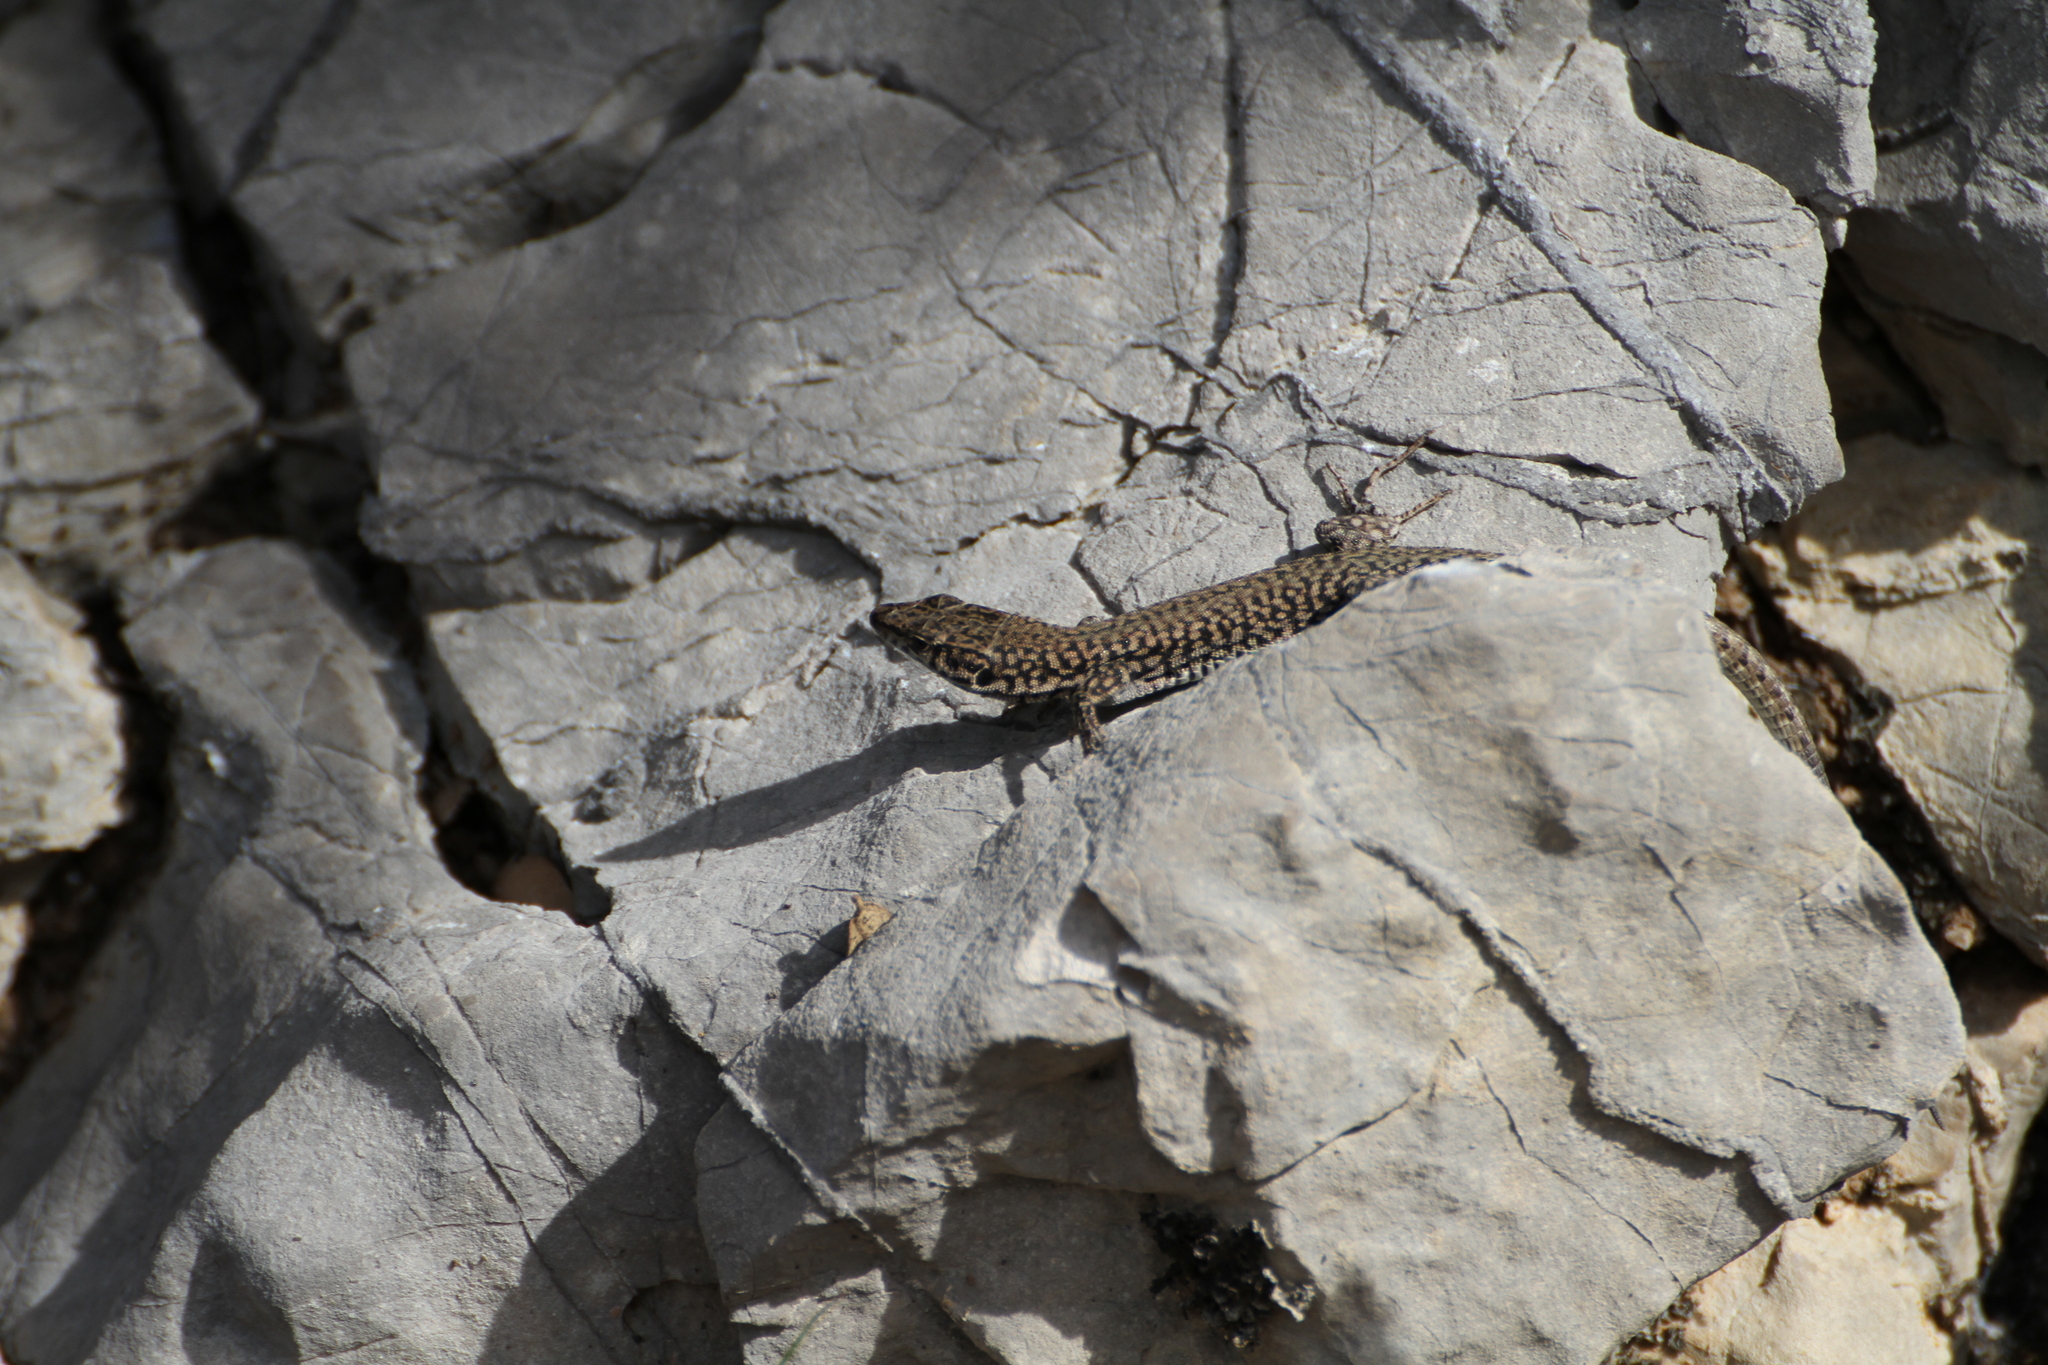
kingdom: Animalia
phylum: Chordata
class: Squamata
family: Lacertidae
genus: Podarcis
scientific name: Podarcis liolepis
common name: Catalonian wall lizard
